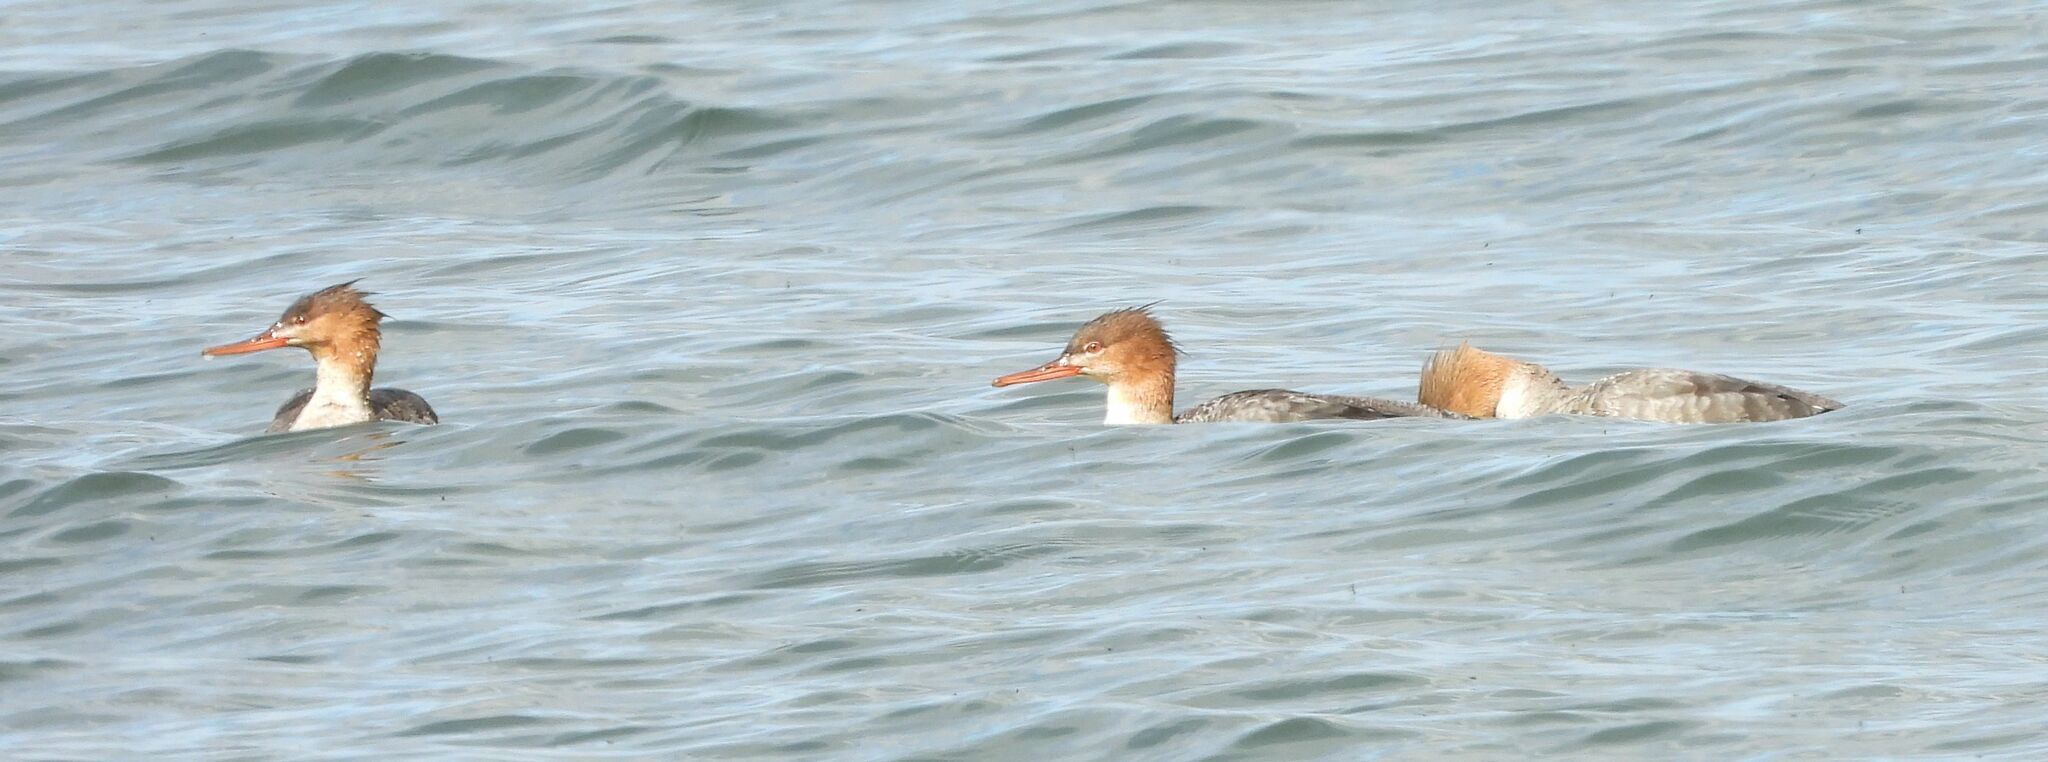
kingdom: Animalia
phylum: Chordata
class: Aves
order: Anseriformes
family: Anatidae
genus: Mergus
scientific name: Mergus serrator
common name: Red-breasted merganser
